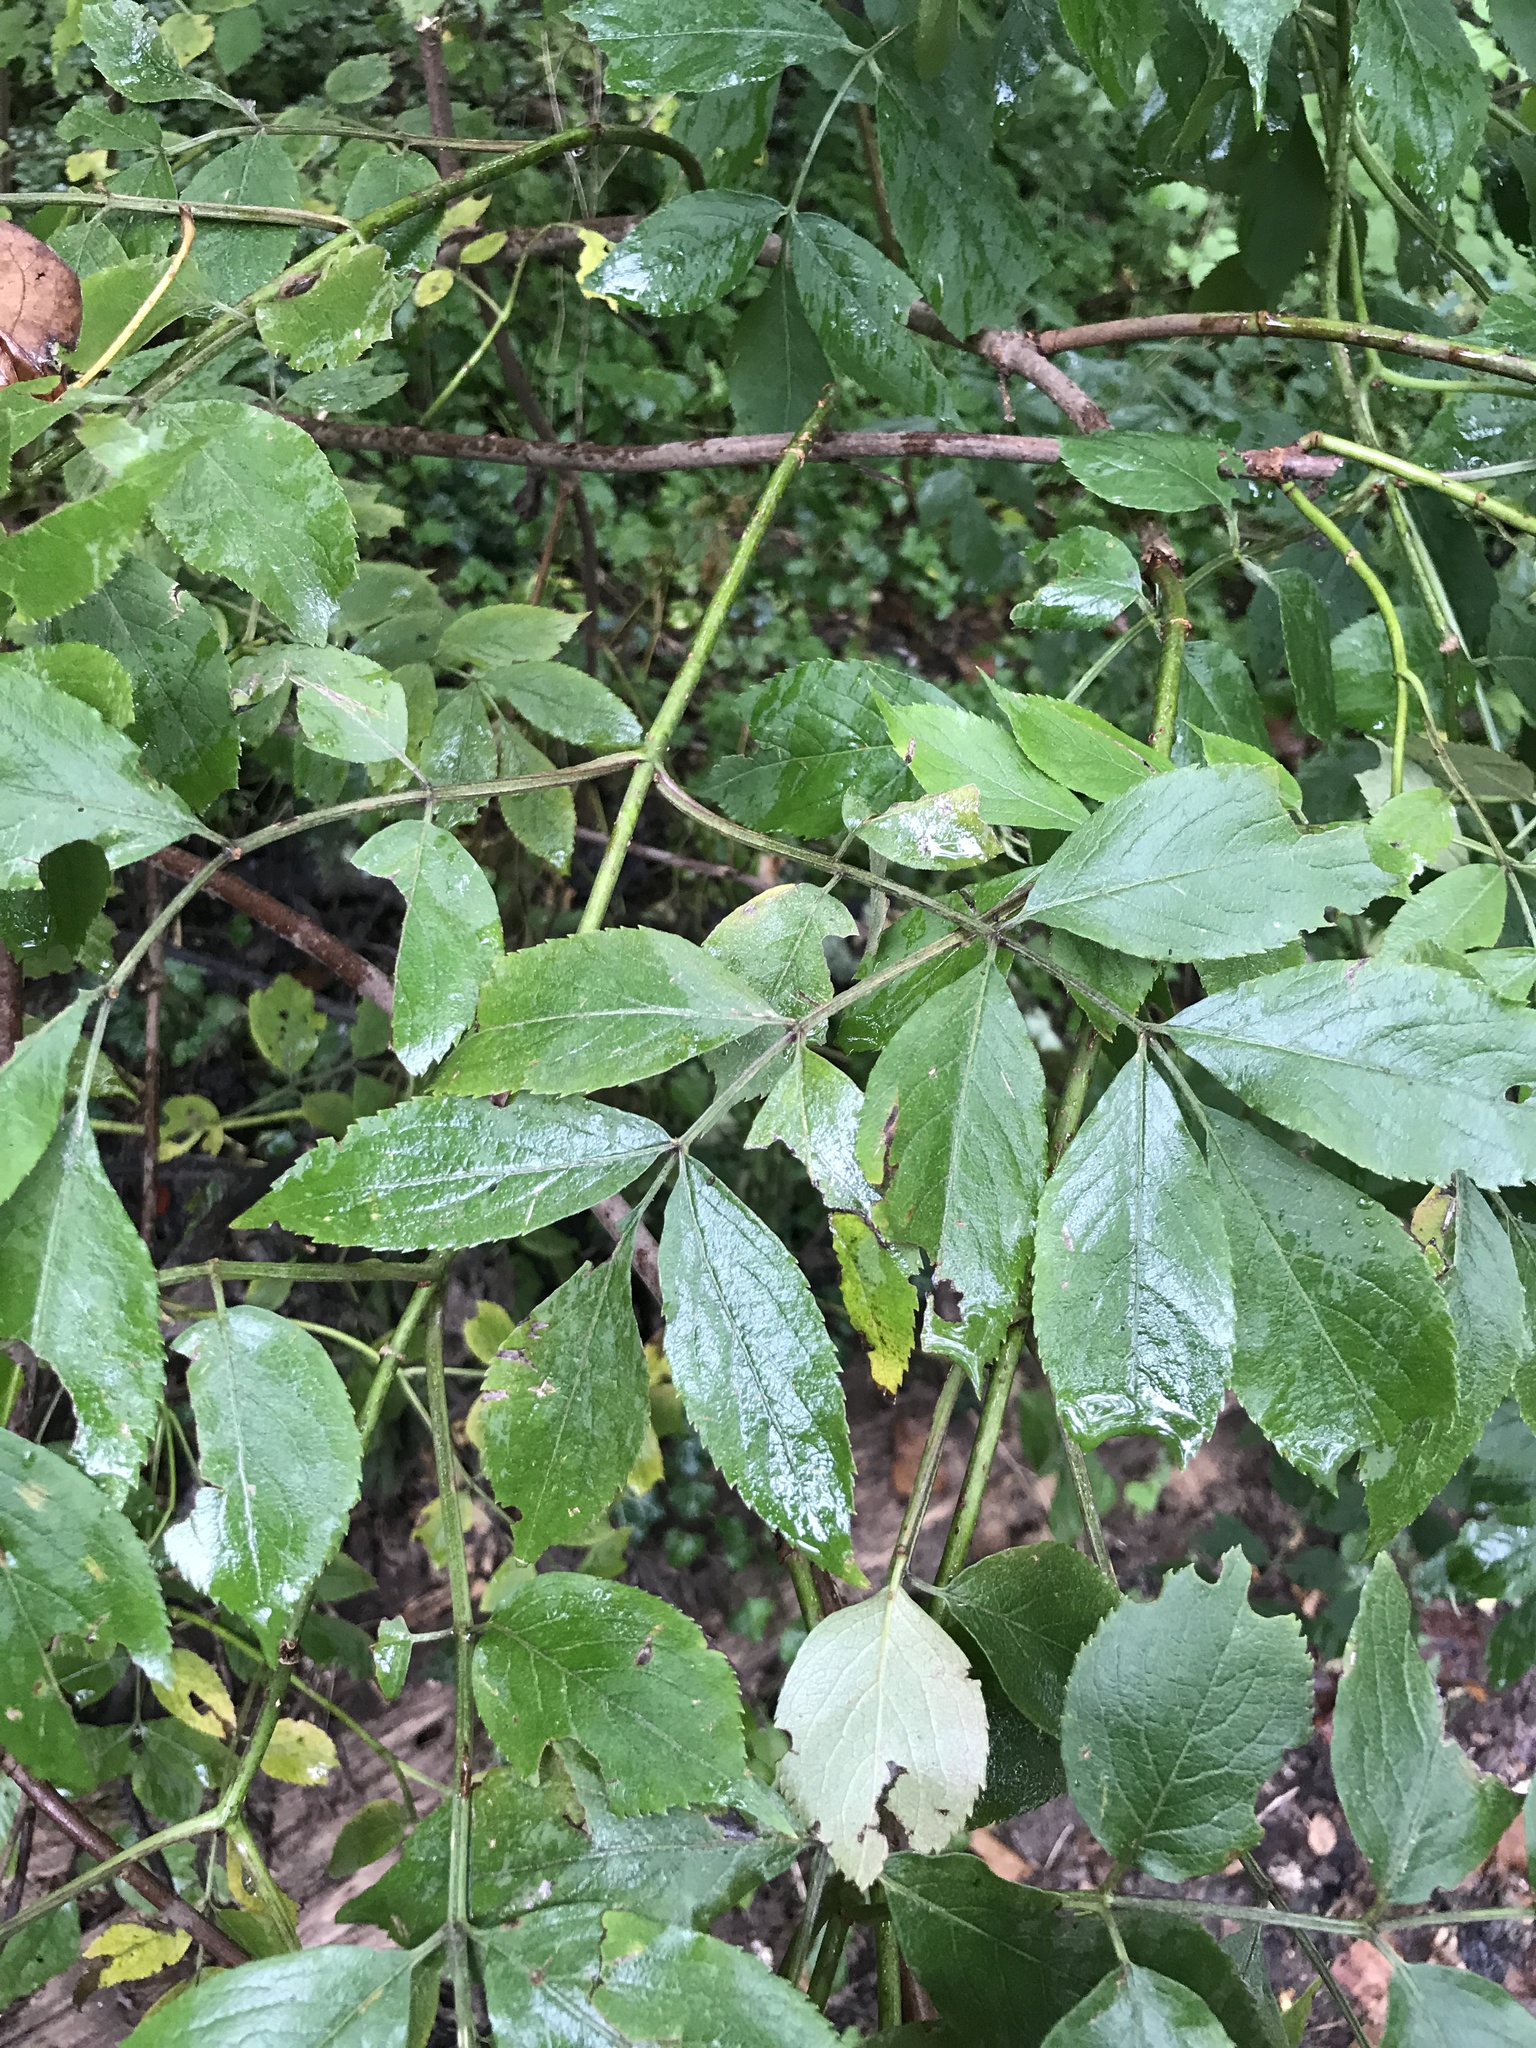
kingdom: Plantae
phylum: Tracheophyta
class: Magnoliopsida
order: Dipsacales
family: Viburnaceae
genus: Sambucus
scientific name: Sambucus canadensis
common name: American elder
